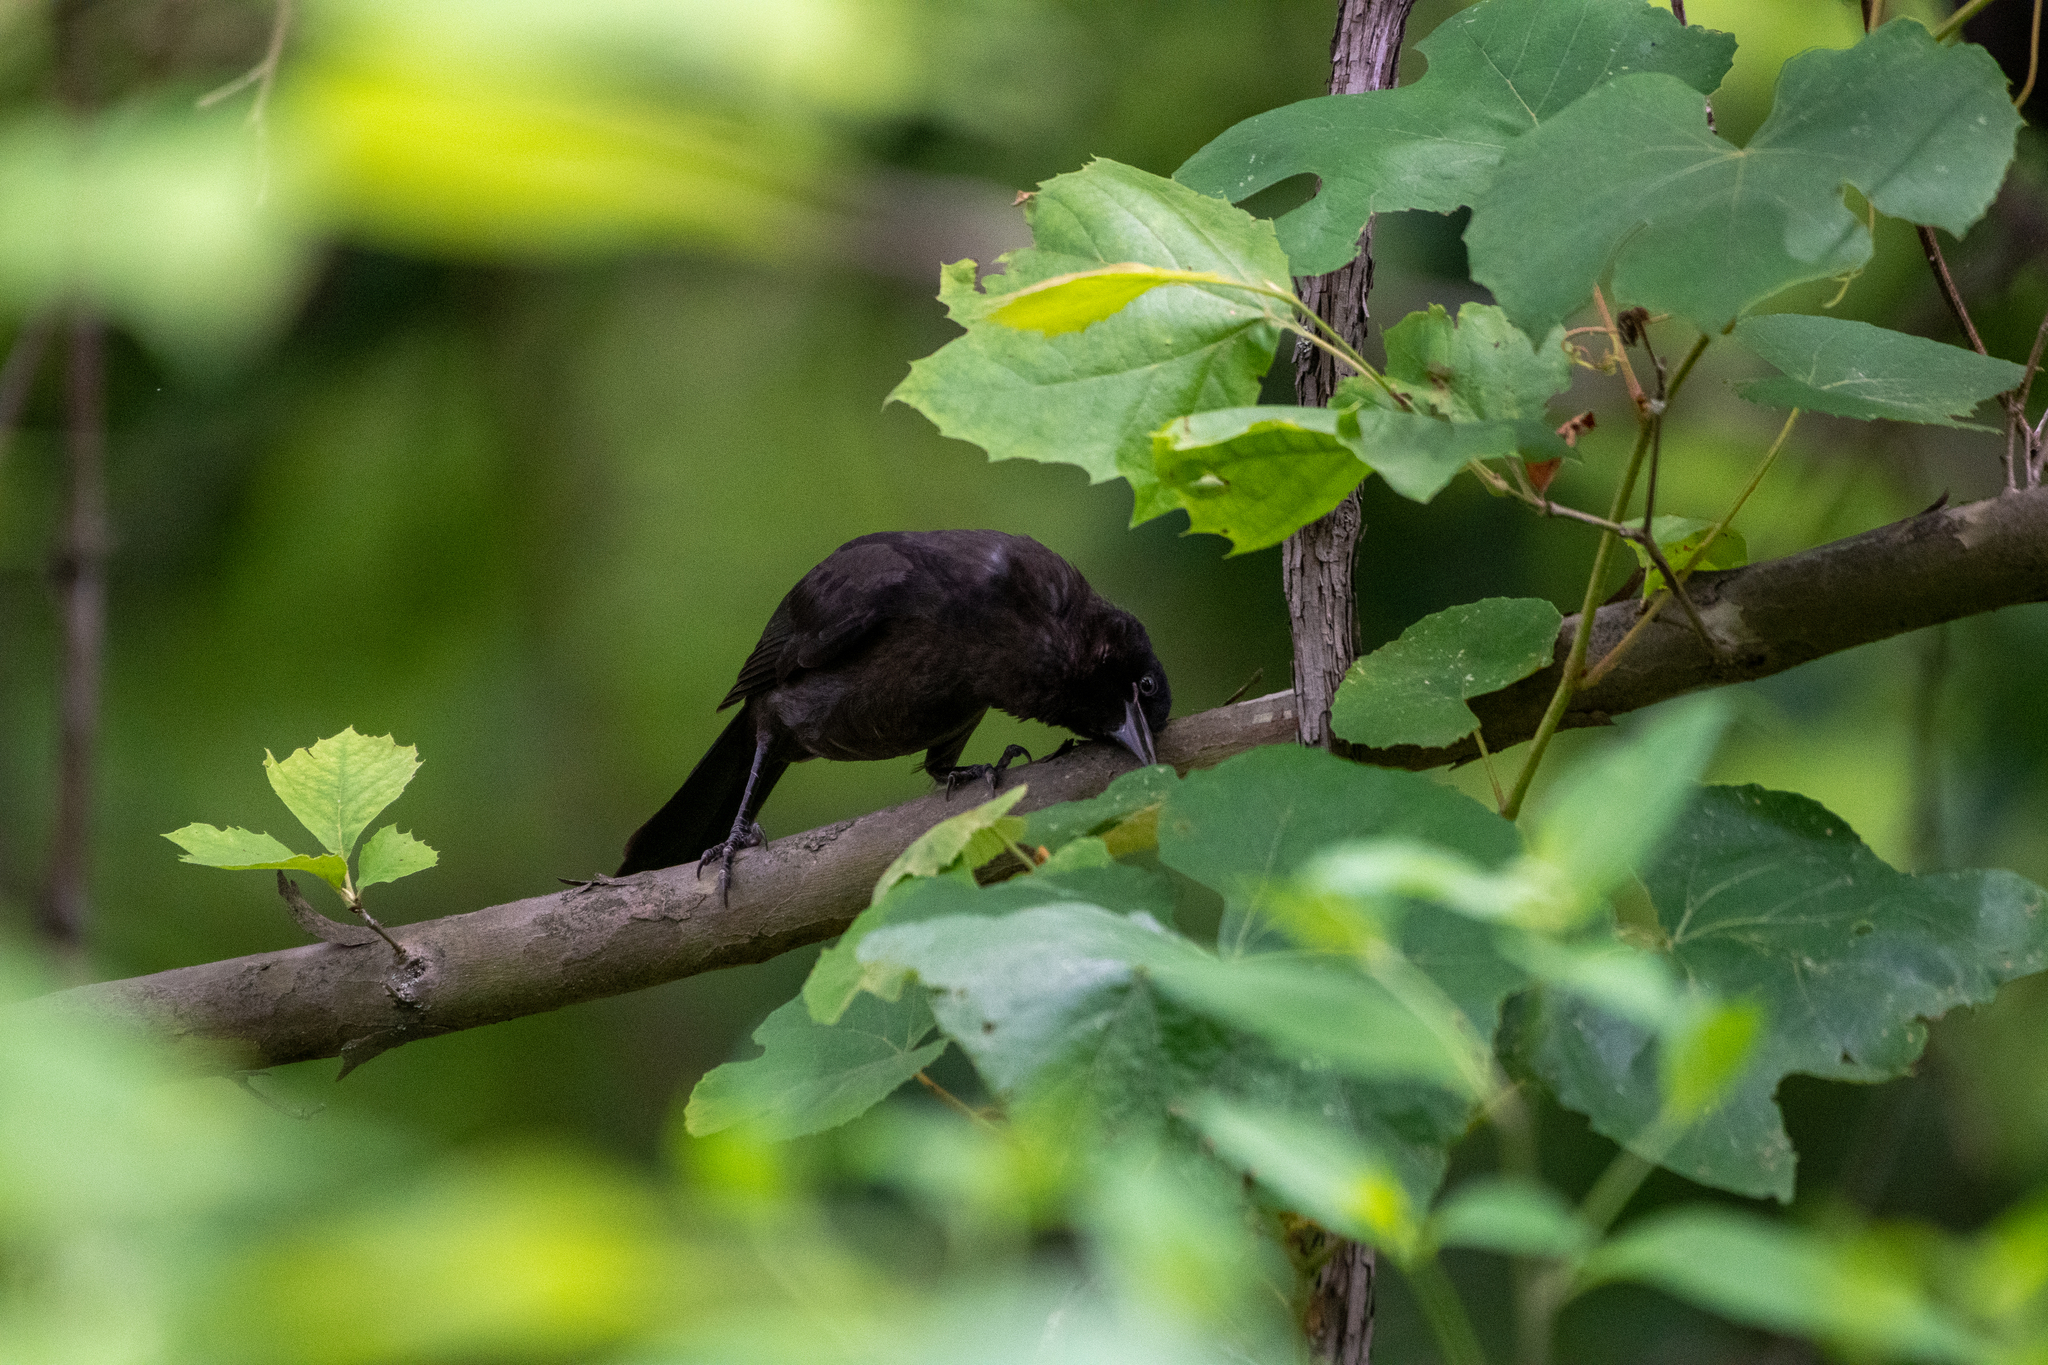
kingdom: Animalia
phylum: Chordata
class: Aves
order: Passeriformes
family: Icteridae
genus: Quiscalus
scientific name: Quiscalus quiscula
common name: Common grackle
